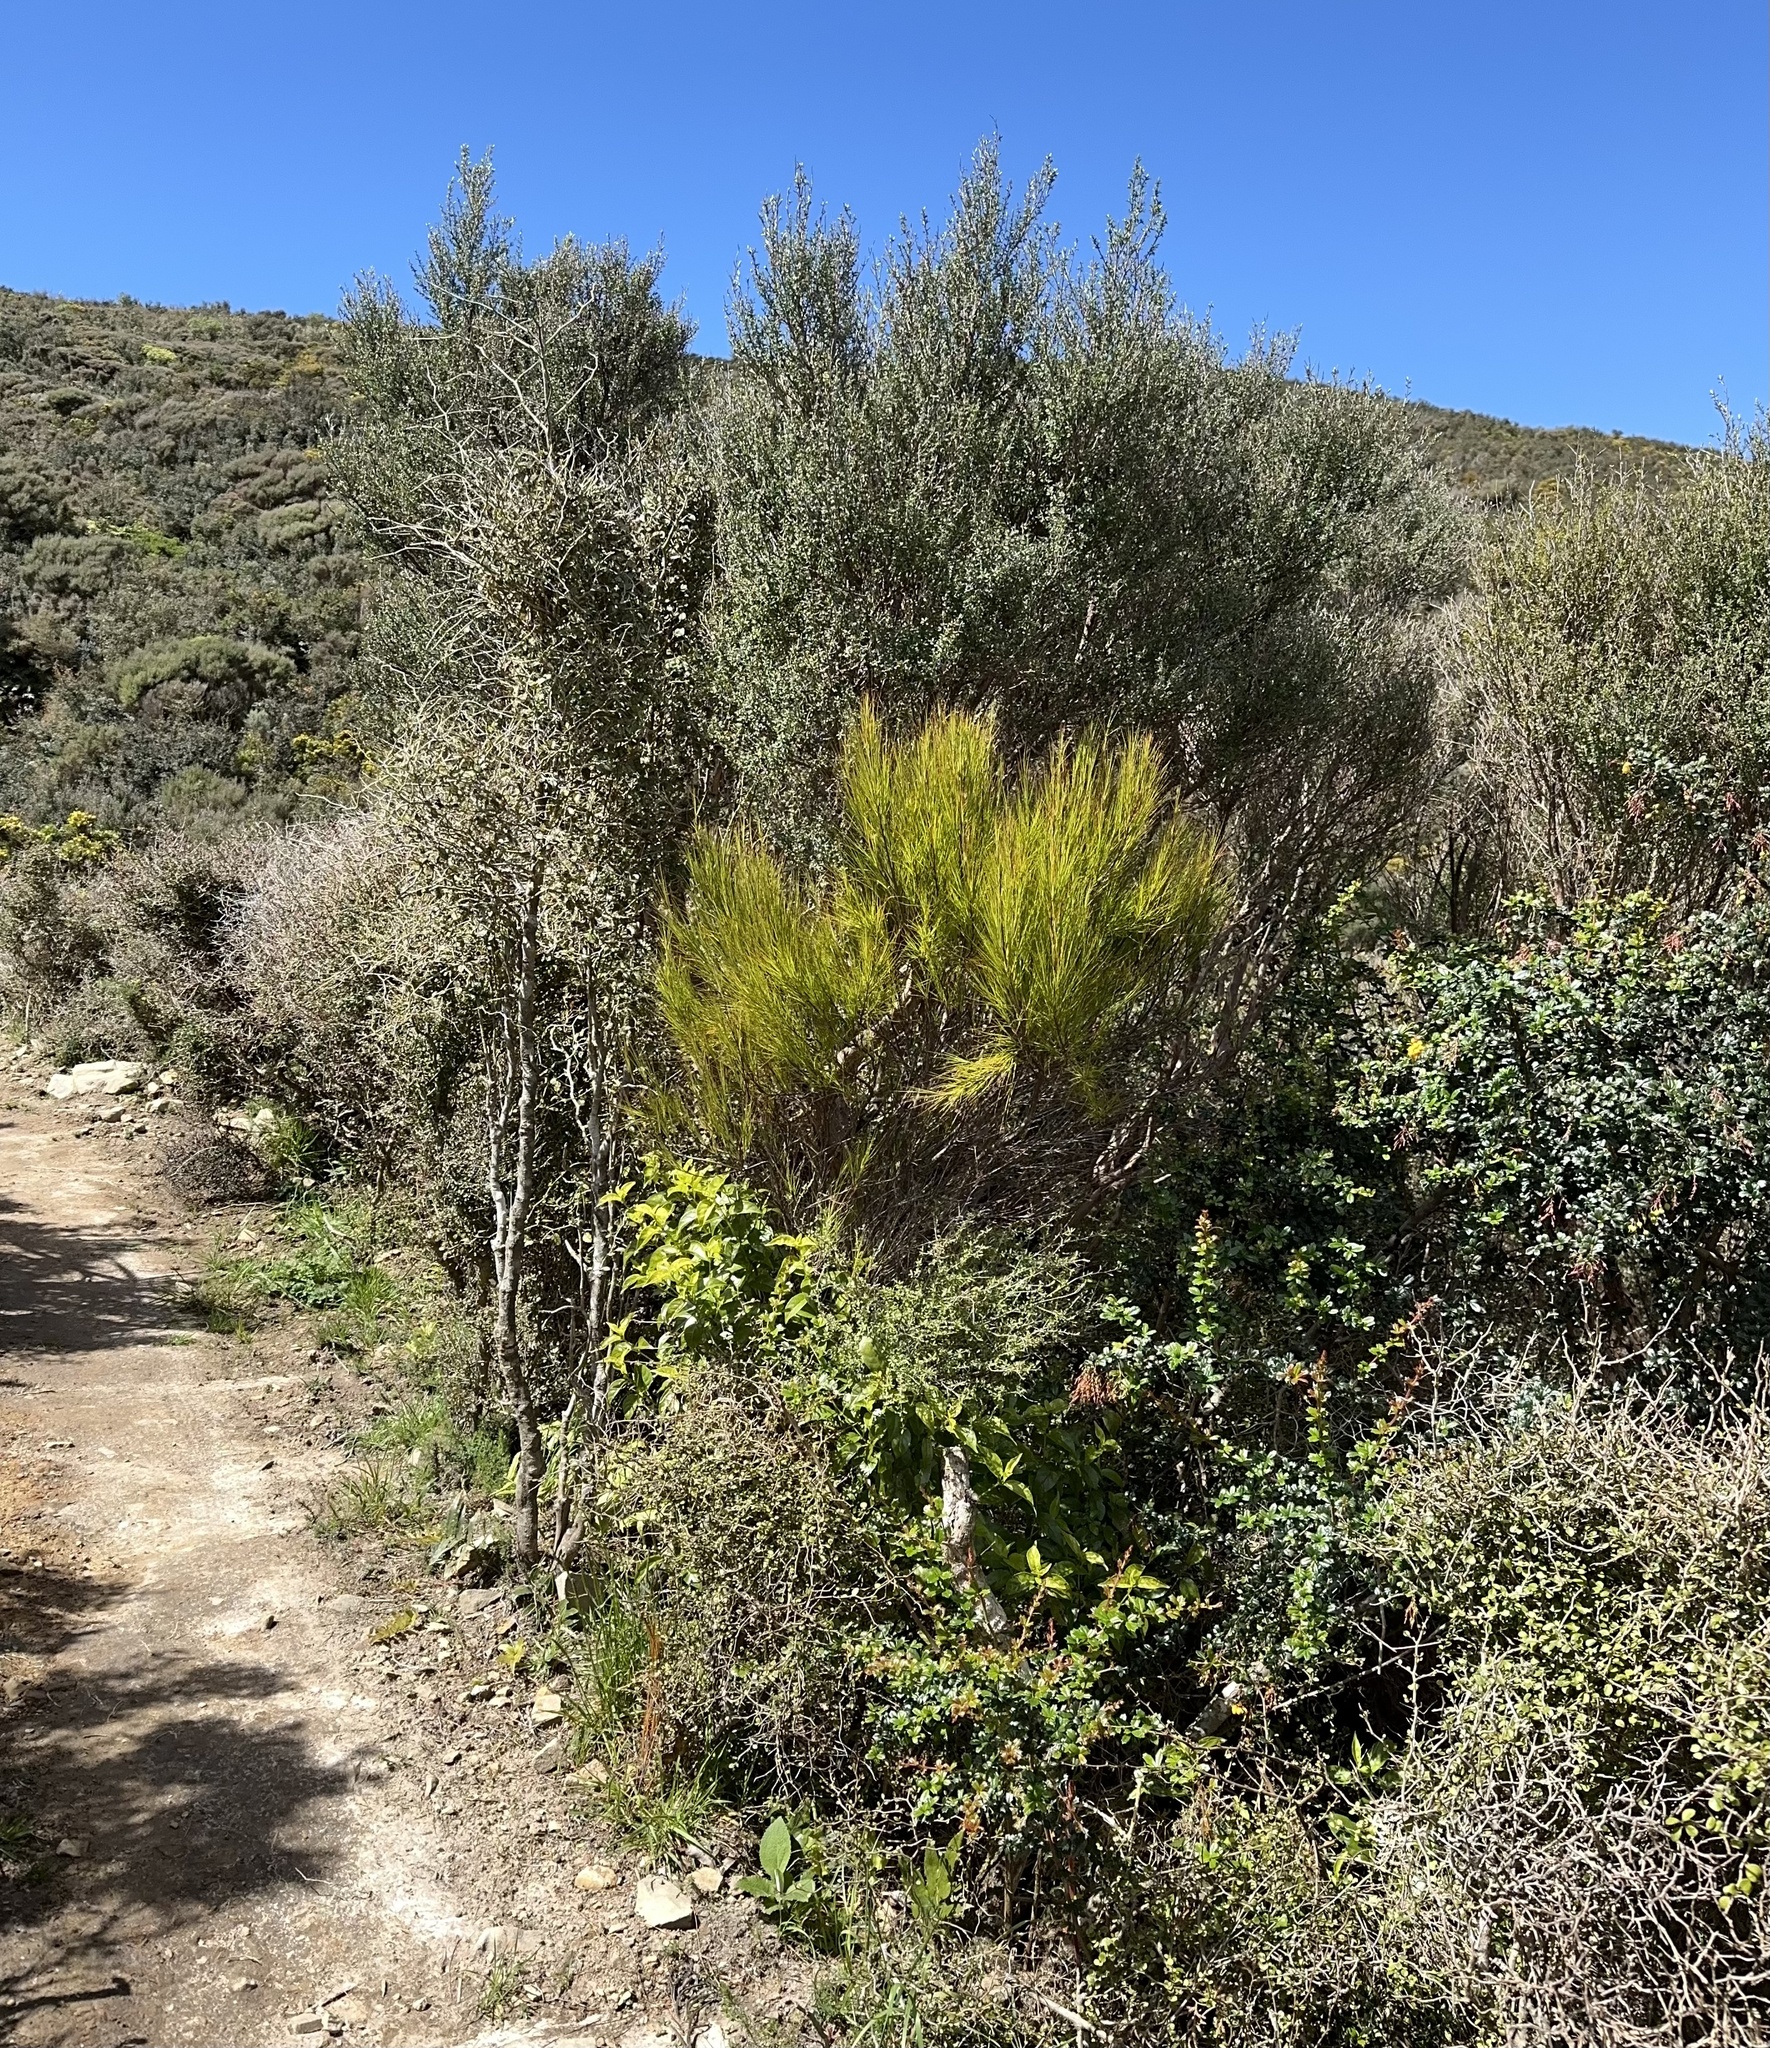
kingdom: Plantae
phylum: Tracheophyta
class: Magnoliopsida
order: Ericales
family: Ericaceae
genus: Dracophyllum
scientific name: Dracophyllum filifolium
